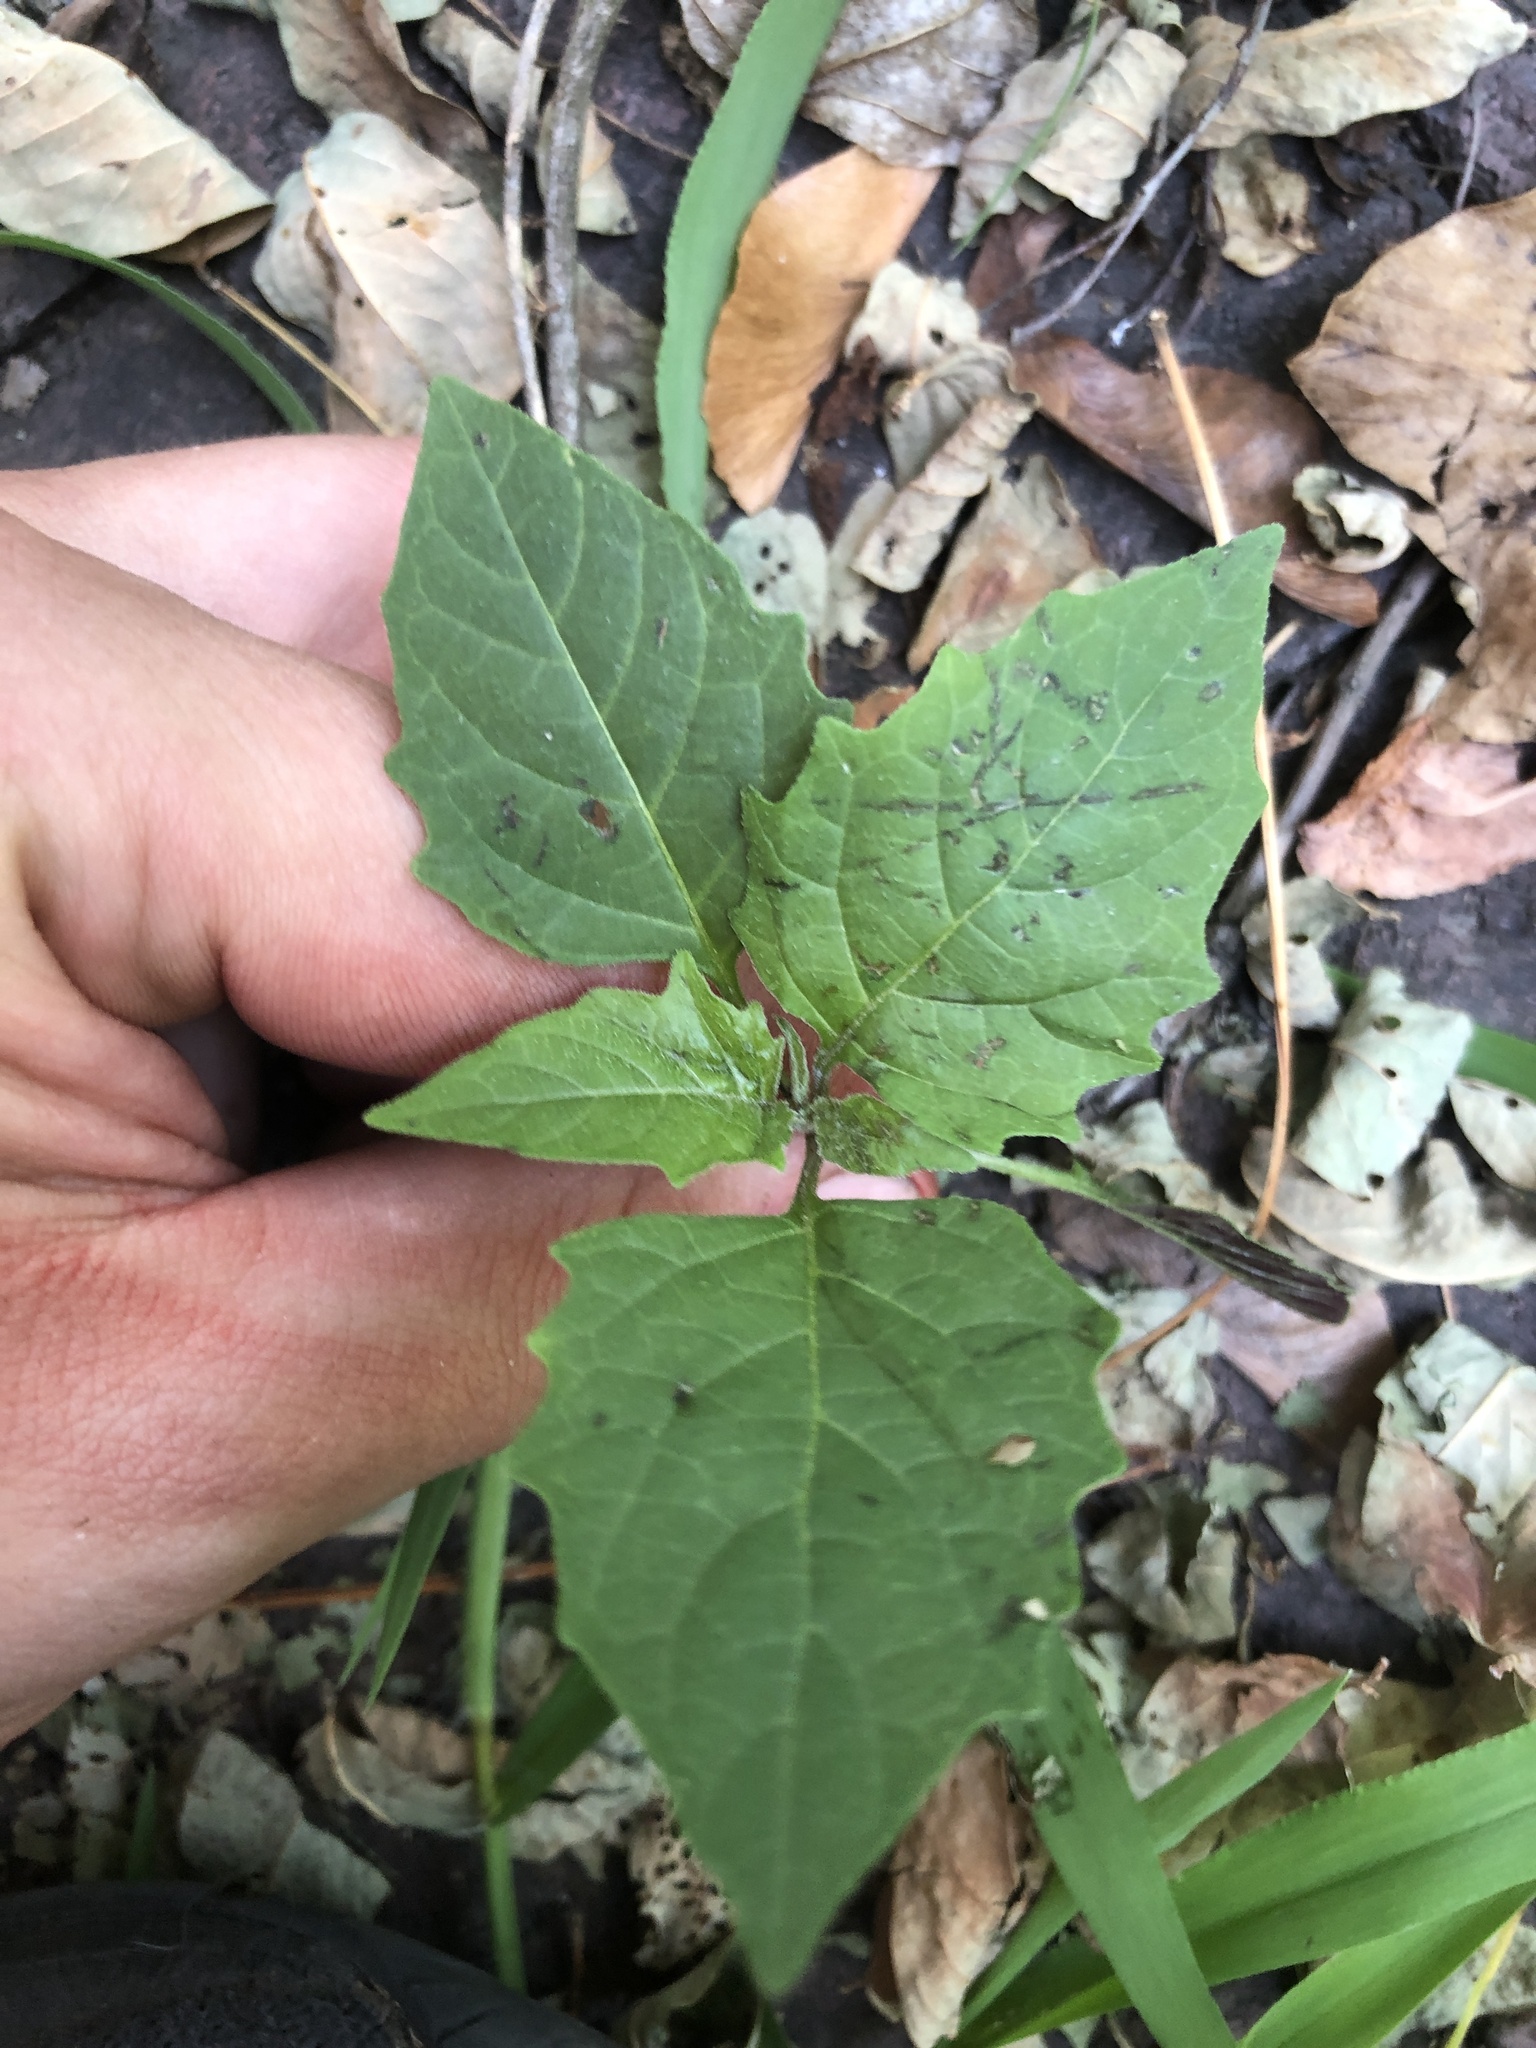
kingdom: Plantae
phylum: Tracheophyta
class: Magnoliopsida
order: Solanales
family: Solanaceae
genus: Solanum
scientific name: Solanum emulans
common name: Eastern black nightshade
